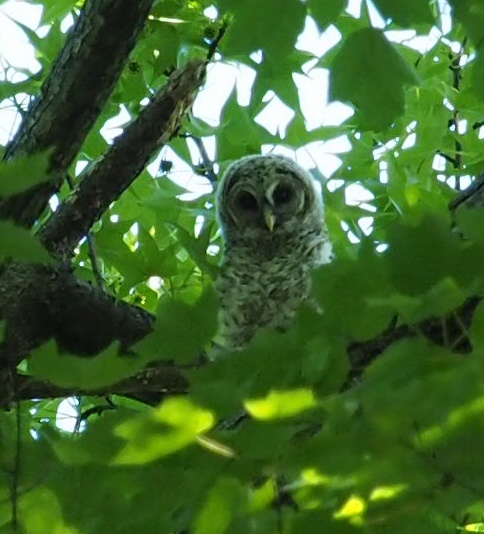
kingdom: Animalia
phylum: Chordata
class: Aves
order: Strigiformes
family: Strigidae
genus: Strix
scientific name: Strix varia
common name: Barred owl
